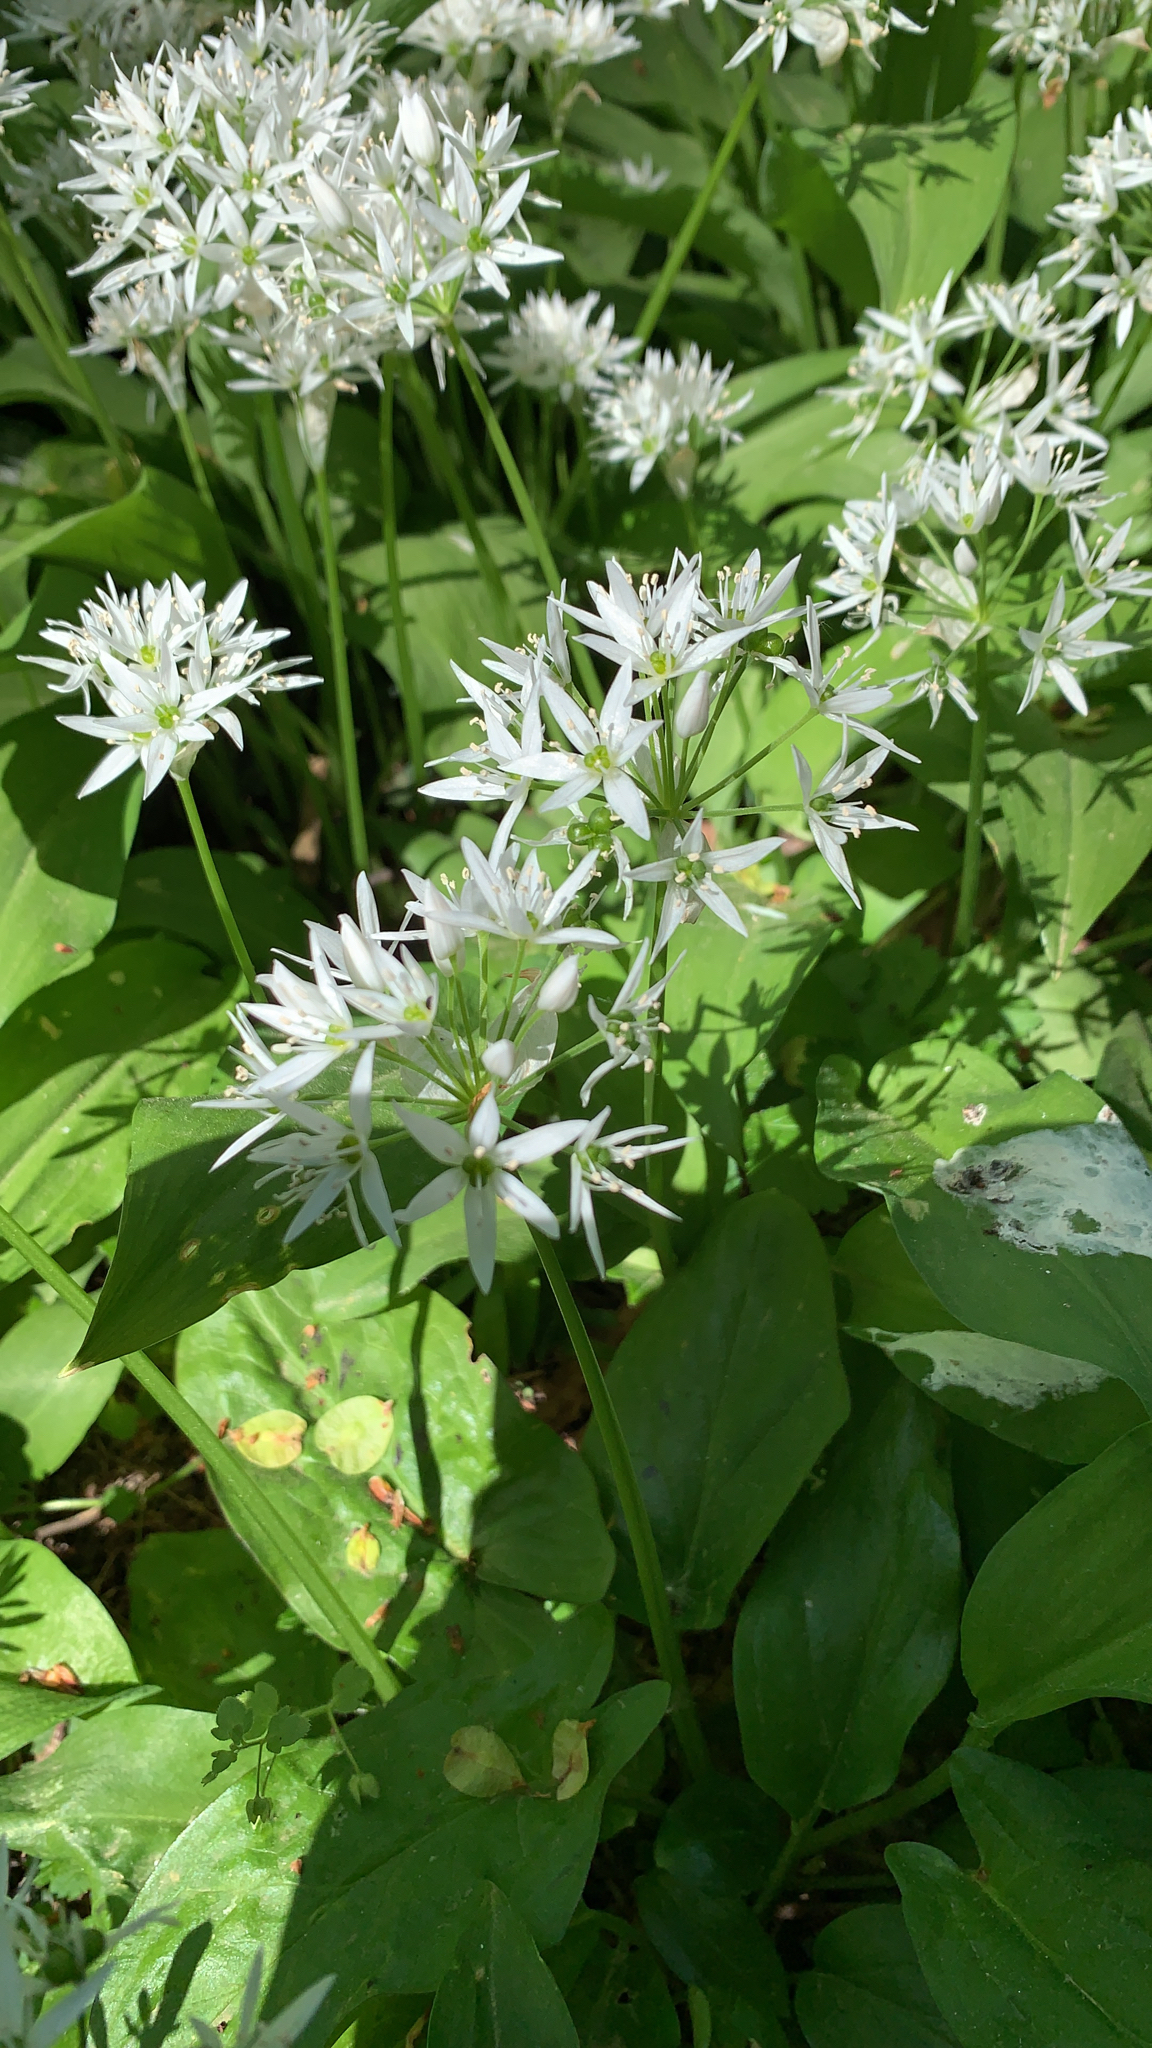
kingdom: Plantae
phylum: Tracheophyta
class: Liliopsida
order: Asparagales
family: Amaryllidaceae
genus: Allium
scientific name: Allium ursinum
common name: Ramsons
